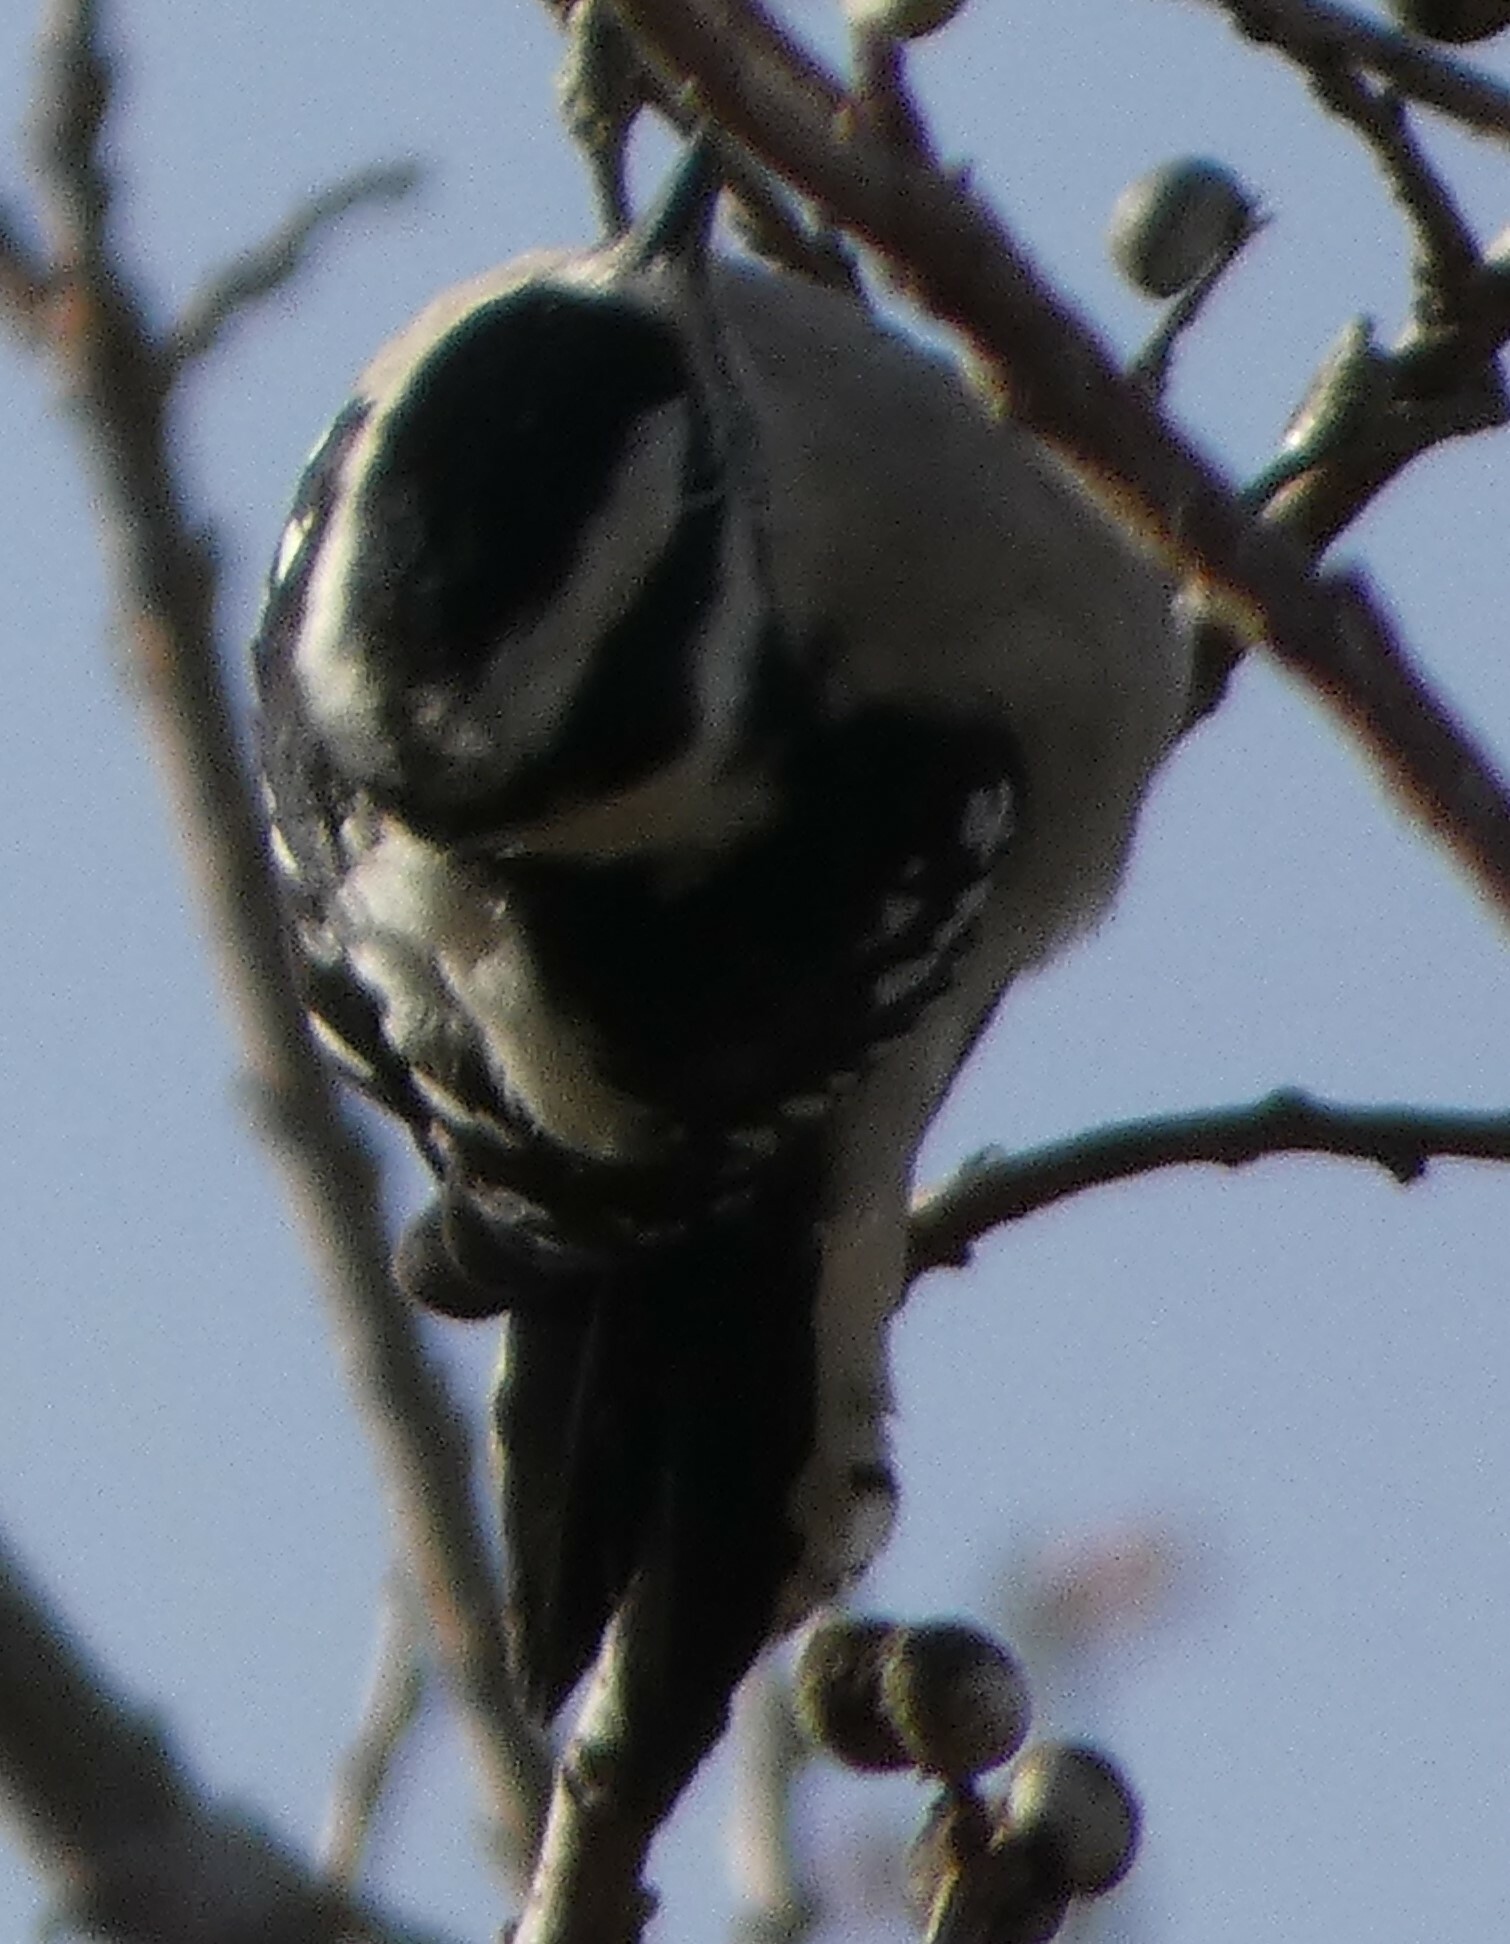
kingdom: Animalia
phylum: Chordata
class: Aves
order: Piciformes
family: Picidae
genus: Dryobates
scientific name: Dryobates pubescens
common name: Downy woodpecker
